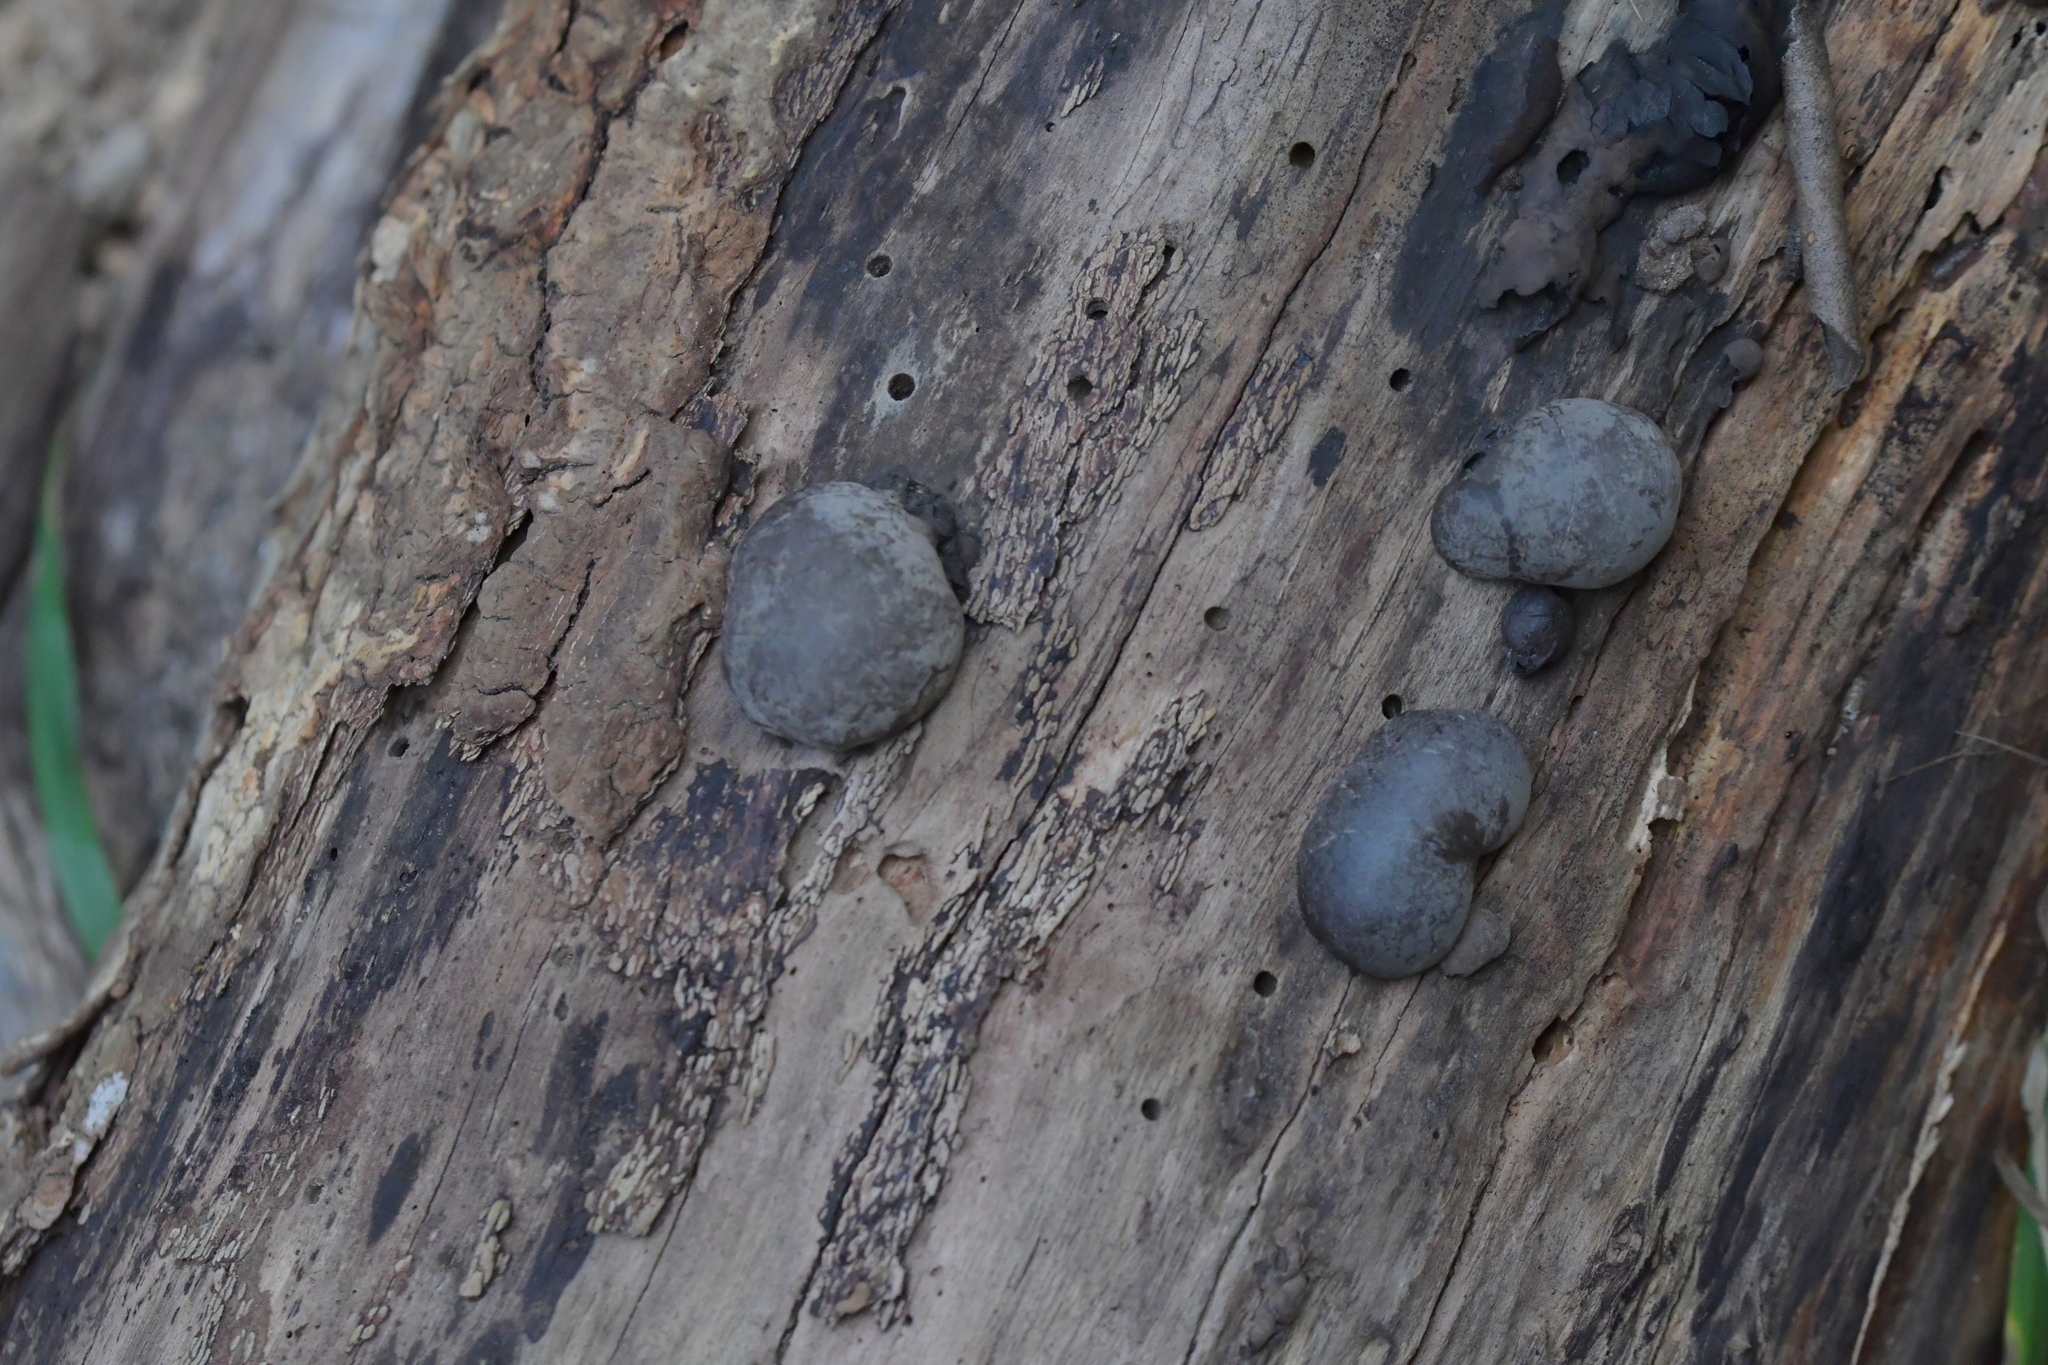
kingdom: Fungi
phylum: Ascomycota
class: Sordariomycetes
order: Xylariales
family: Hypoxylaceae
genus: Daldinia
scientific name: Daldinia
